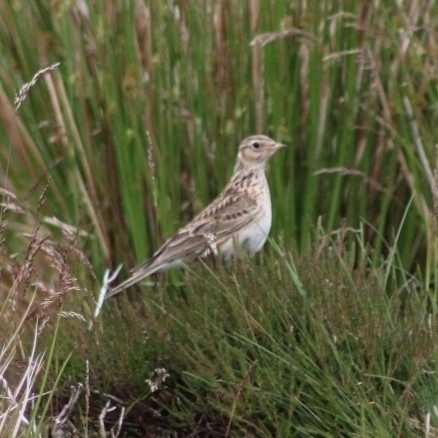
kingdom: Animalia
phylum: Chordata
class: Aves
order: Passeriformes
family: Alaudidae
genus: Alauda
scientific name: Alauda arvensis
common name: Eurasian skylark
